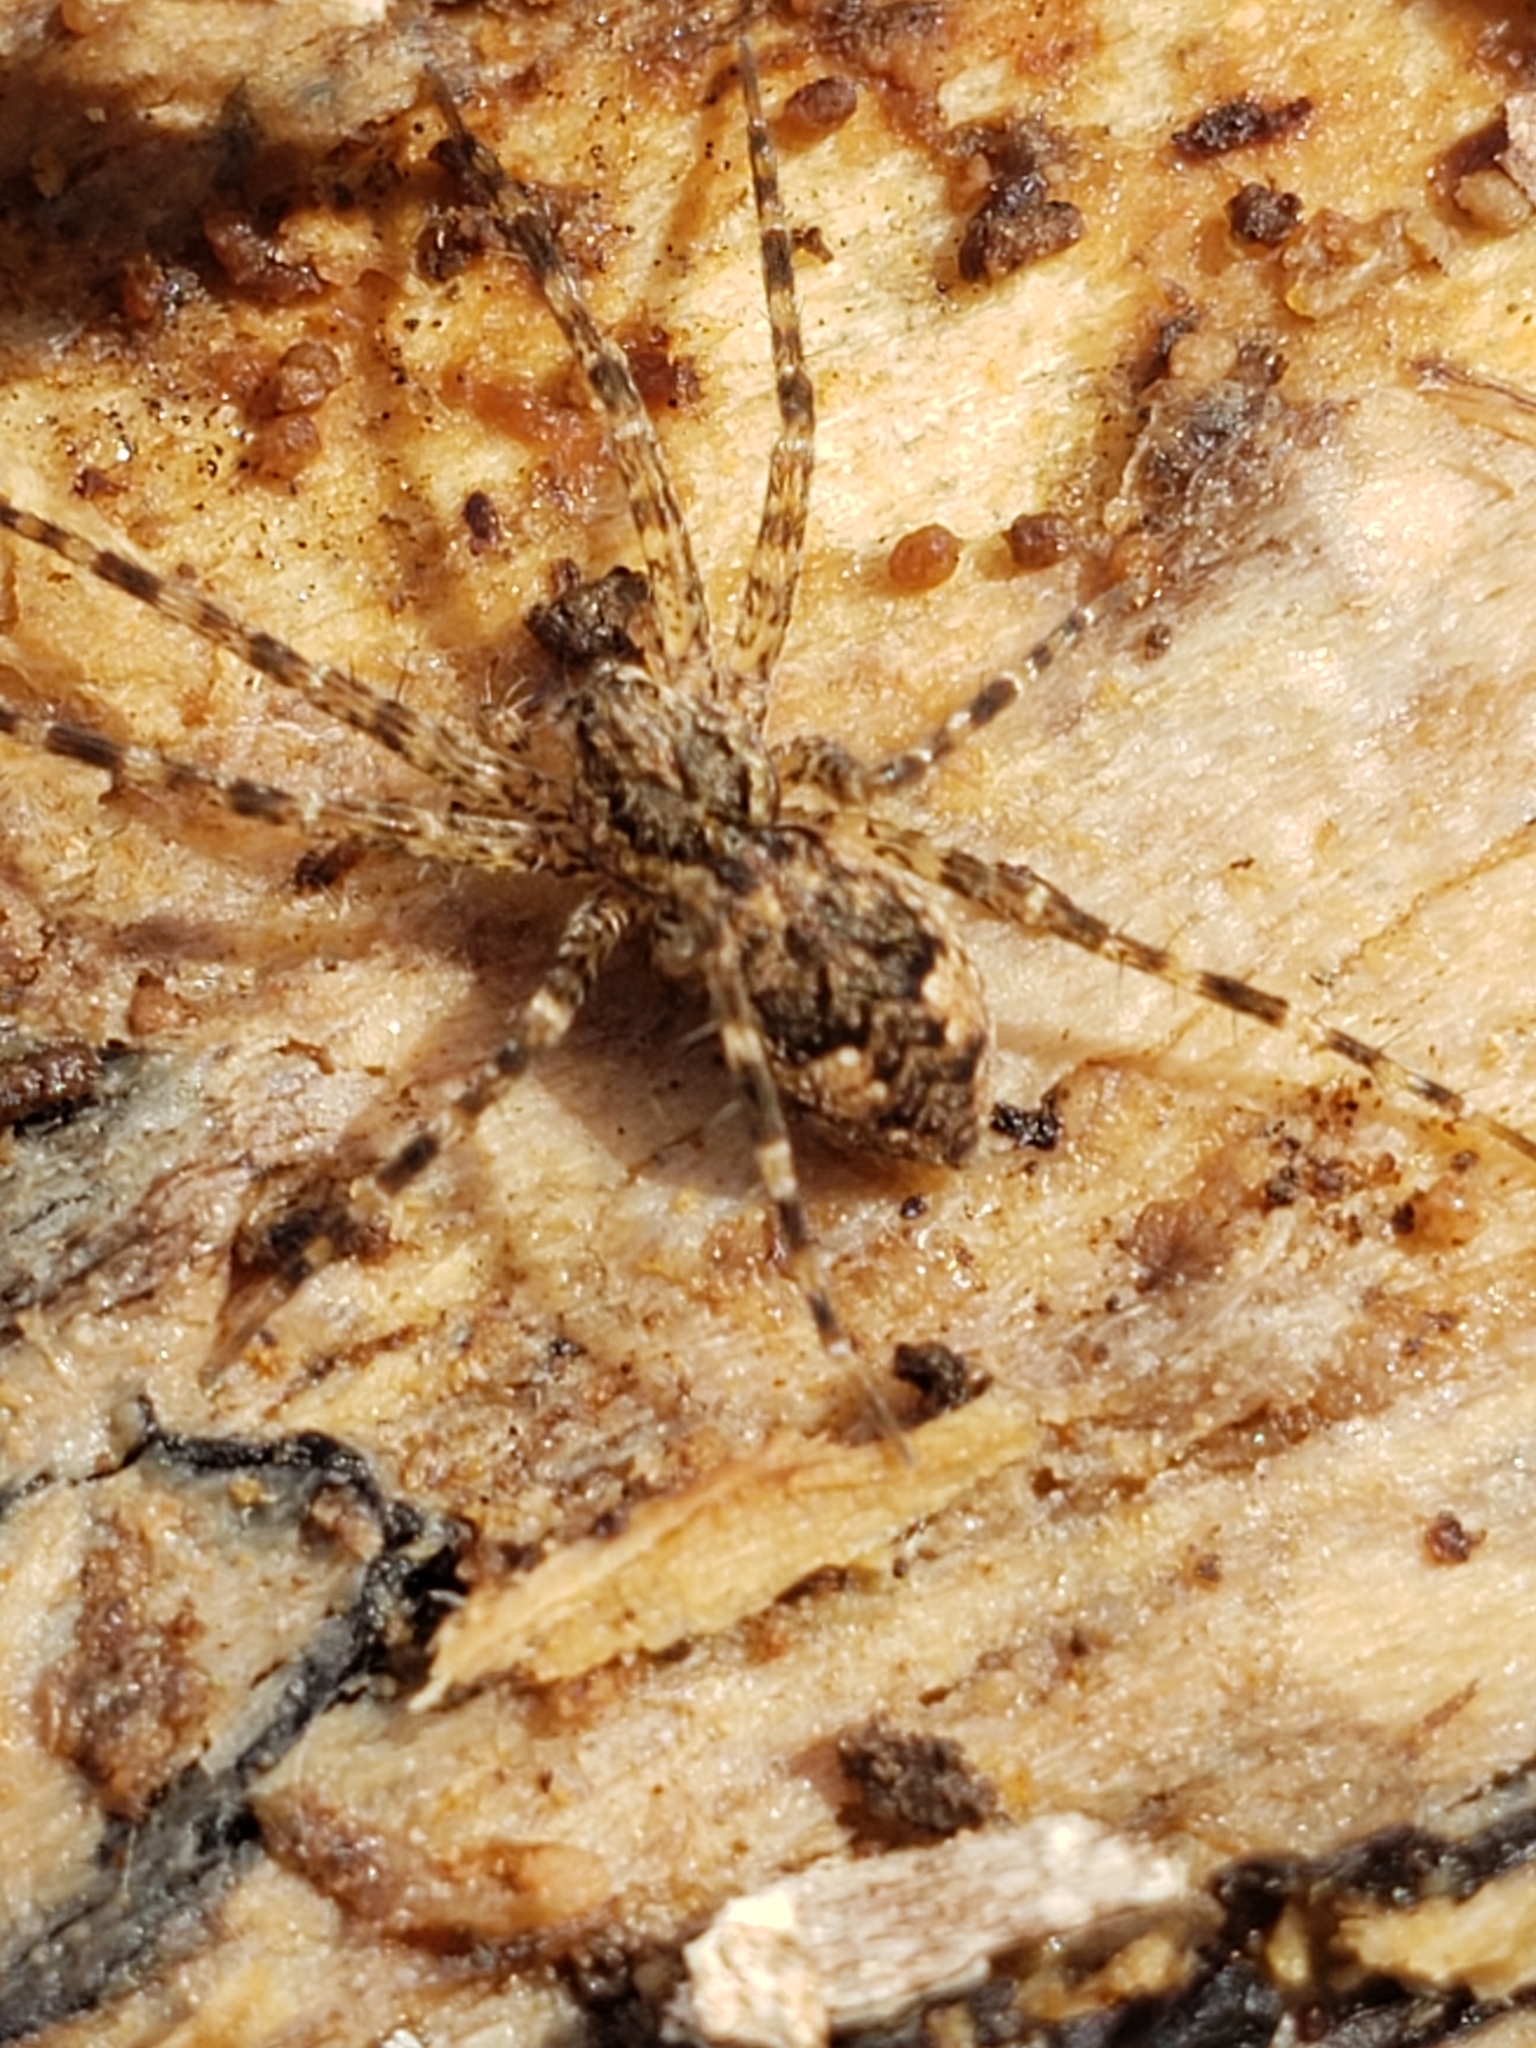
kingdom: Animalia
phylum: Arthropoda
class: Arachnida
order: Araneae
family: Pisauridae
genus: Dolomedes
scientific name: Dolomedes tenebrosus
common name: Dark fishing spider
